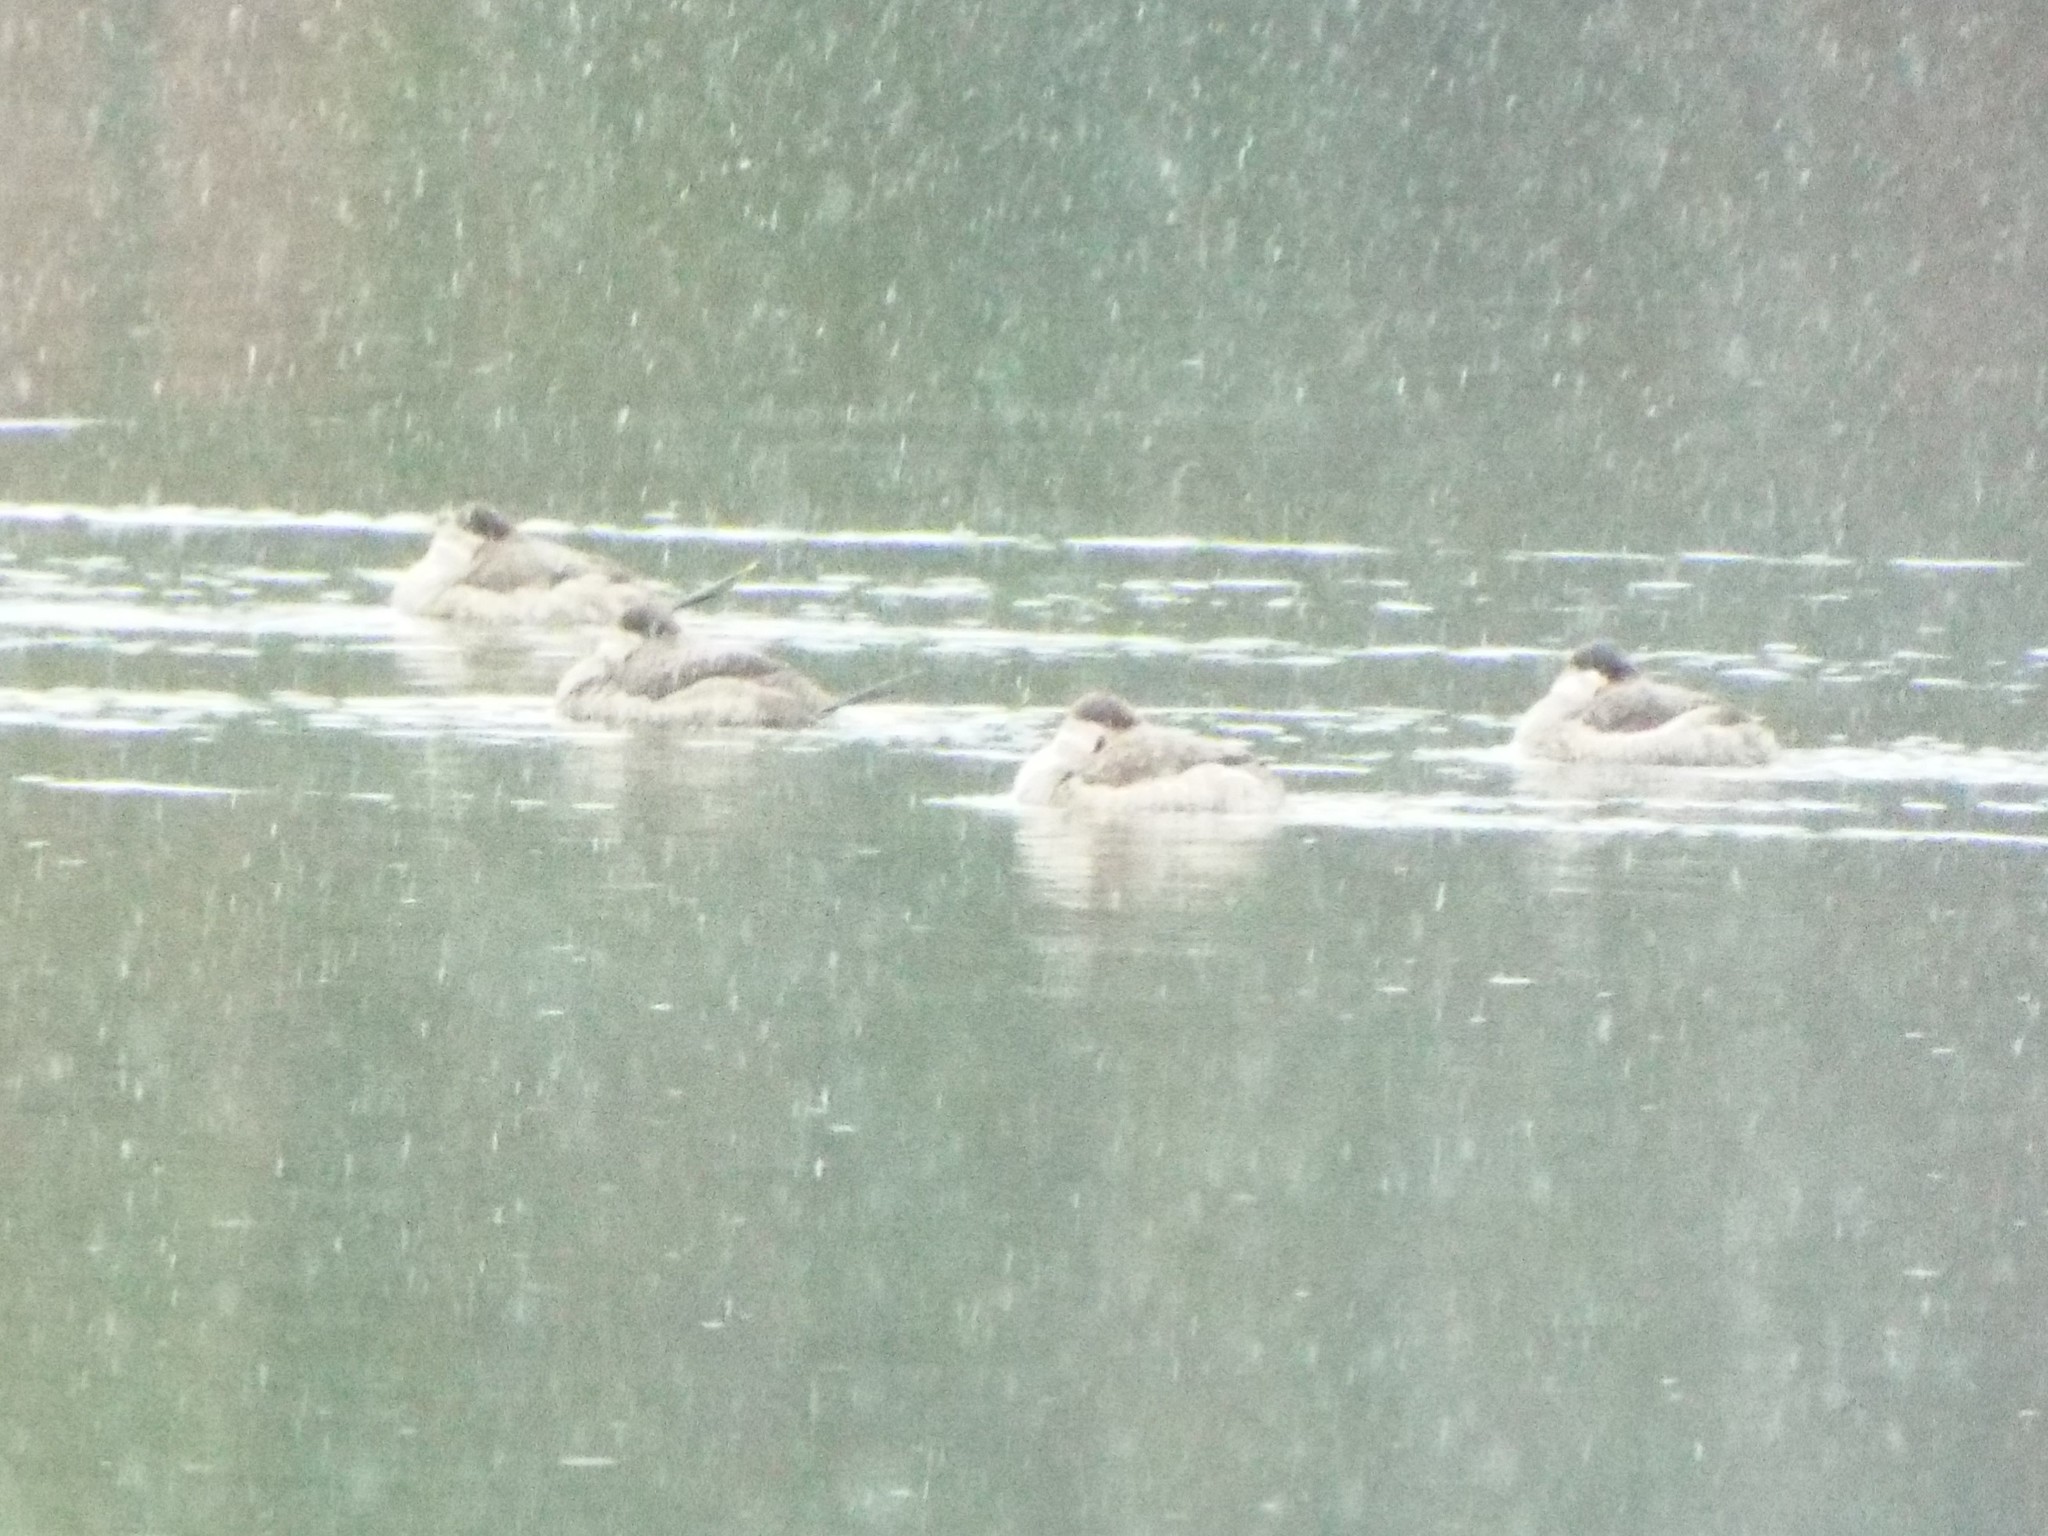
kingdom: Animalia
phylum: Chordata
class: Aves
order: Anseriformes
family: Anatidae
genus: Oxyura
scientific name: Oxyura jamaicensis
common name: Ruddy duck
